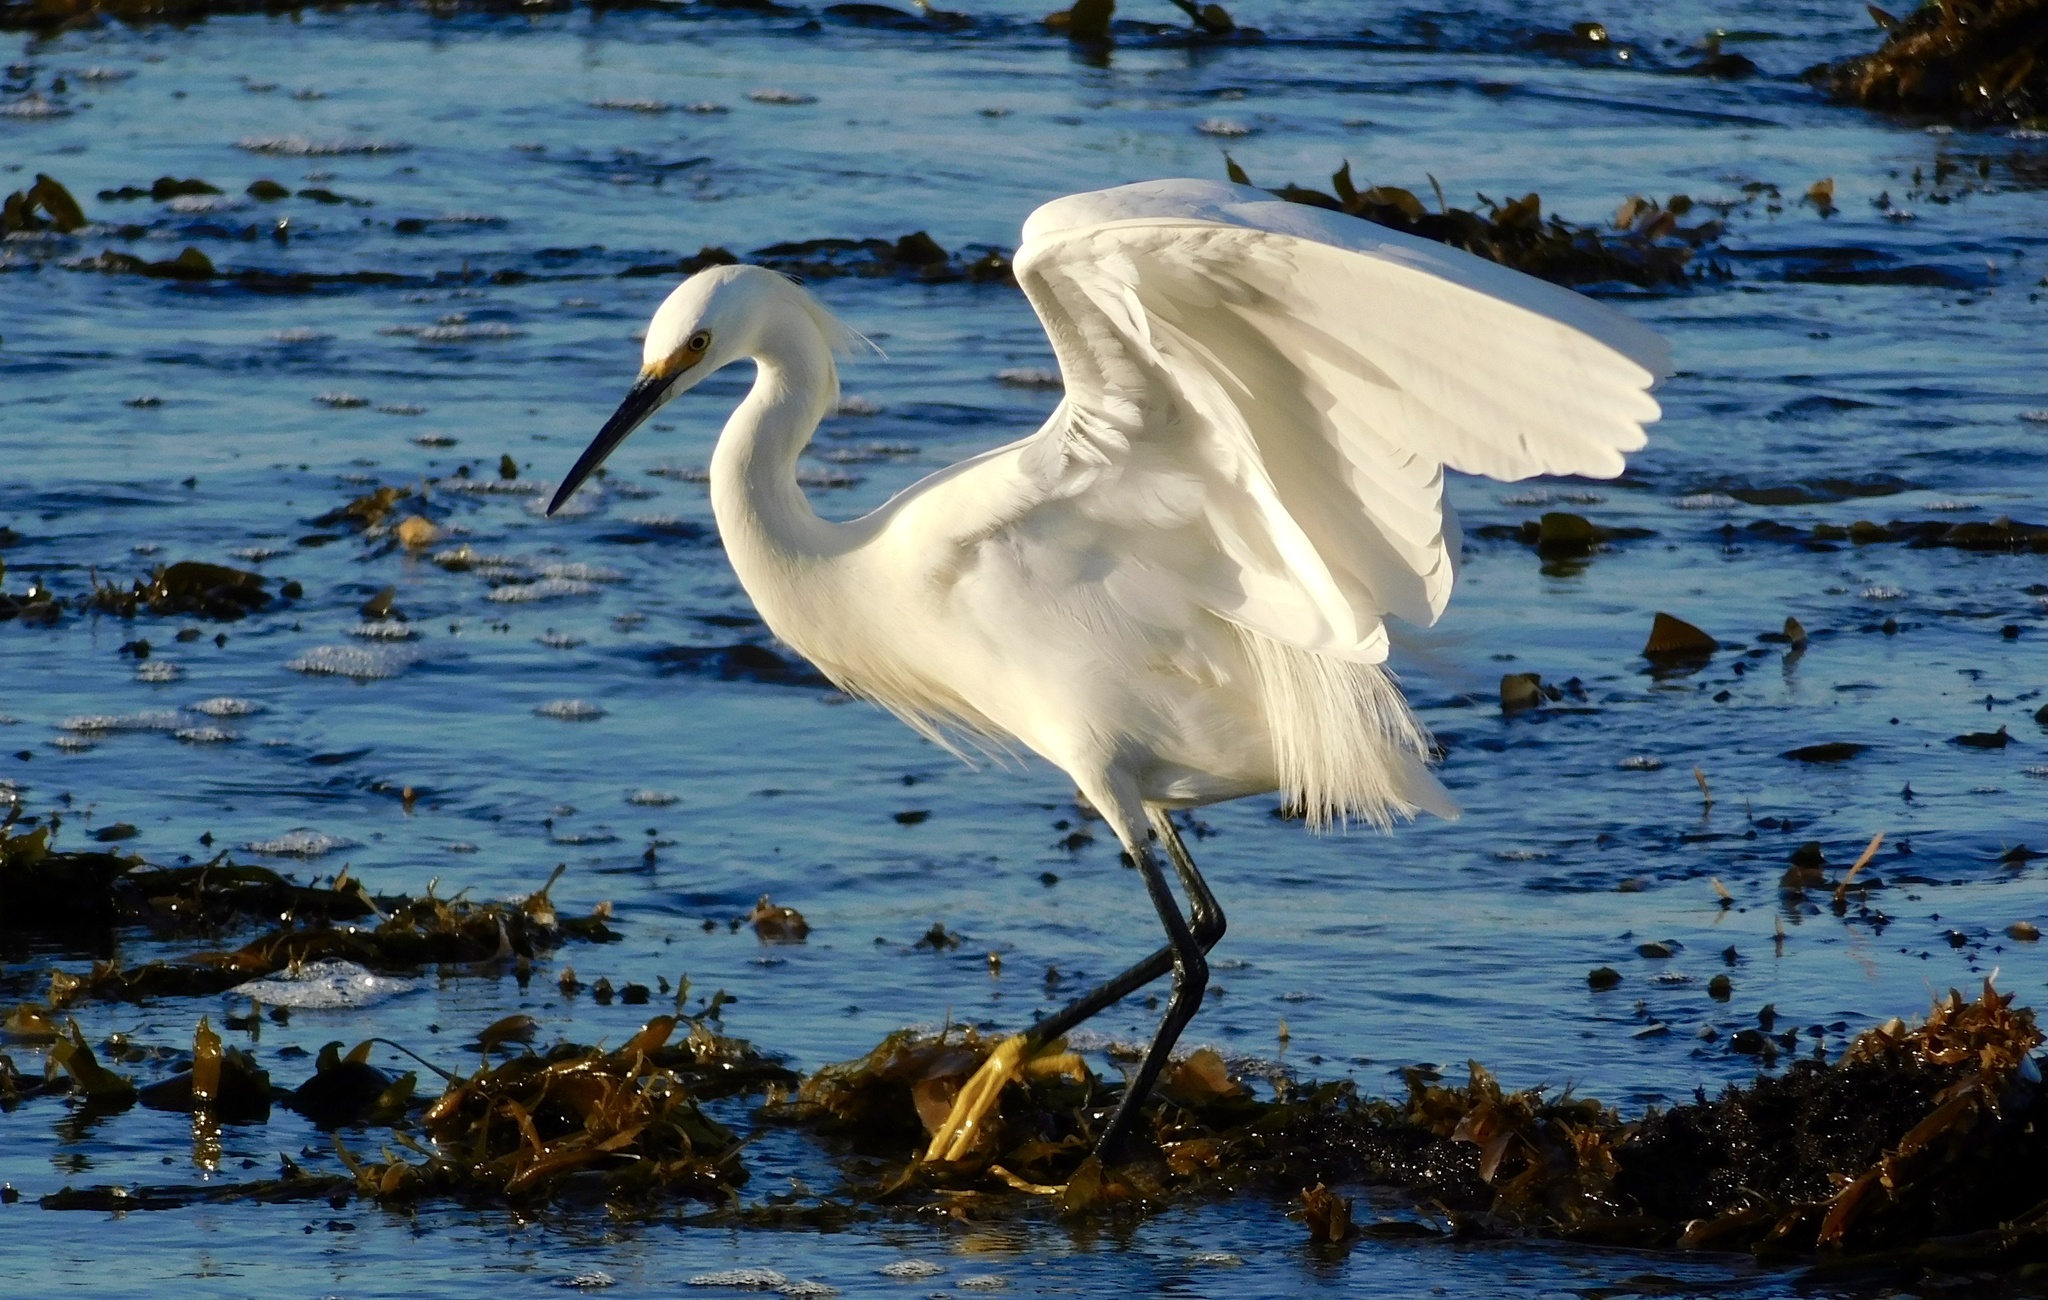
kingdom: Animalia
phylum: Chordata
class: Aves
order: Pelecaniformes
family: Ardeidae
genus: Egretta
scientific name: Egretta thula
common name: Snowy egret
